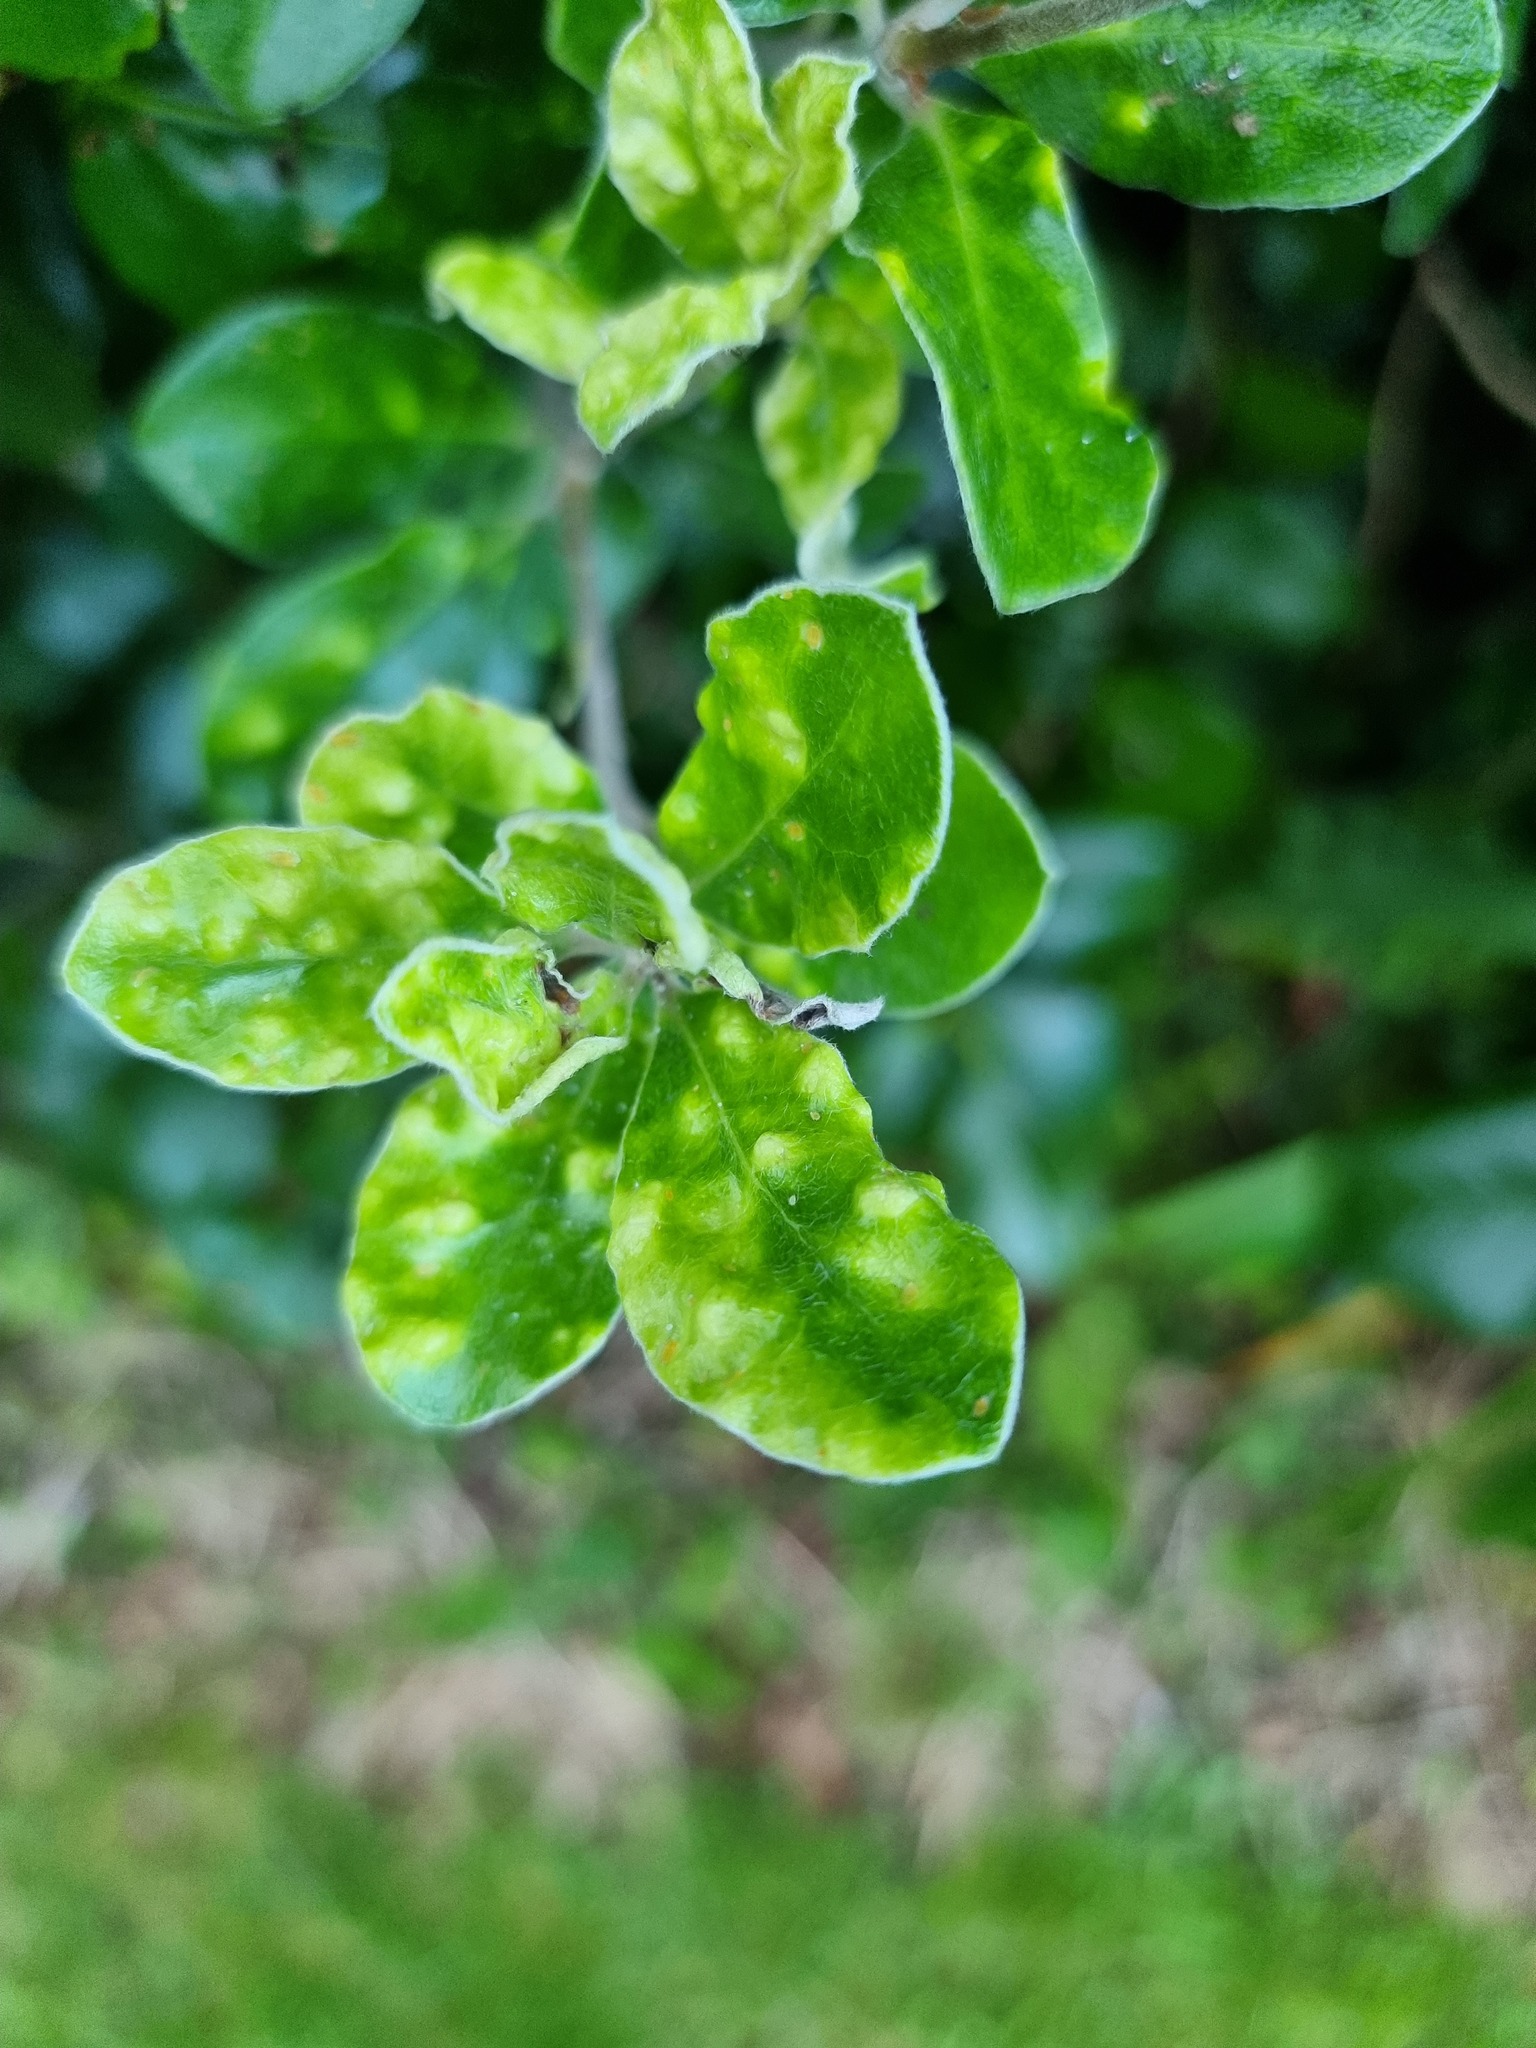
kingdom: Plantae
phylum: Tracheophyta
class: Magnoliopsida
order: Apiales
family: Pittosporaceae
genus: Pittosporum
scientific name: Pittosporum crassifolium
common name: Karo
